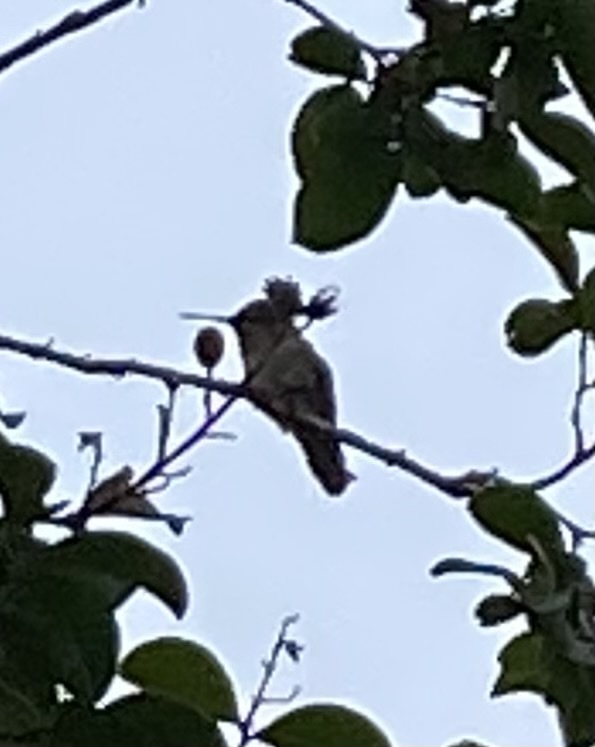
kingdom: Animalia
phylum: Chordata
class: Aves
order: Apodiformes
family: Trochilidae
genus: Calypte
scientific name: Calypte anna
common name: Anna's hummingbird
